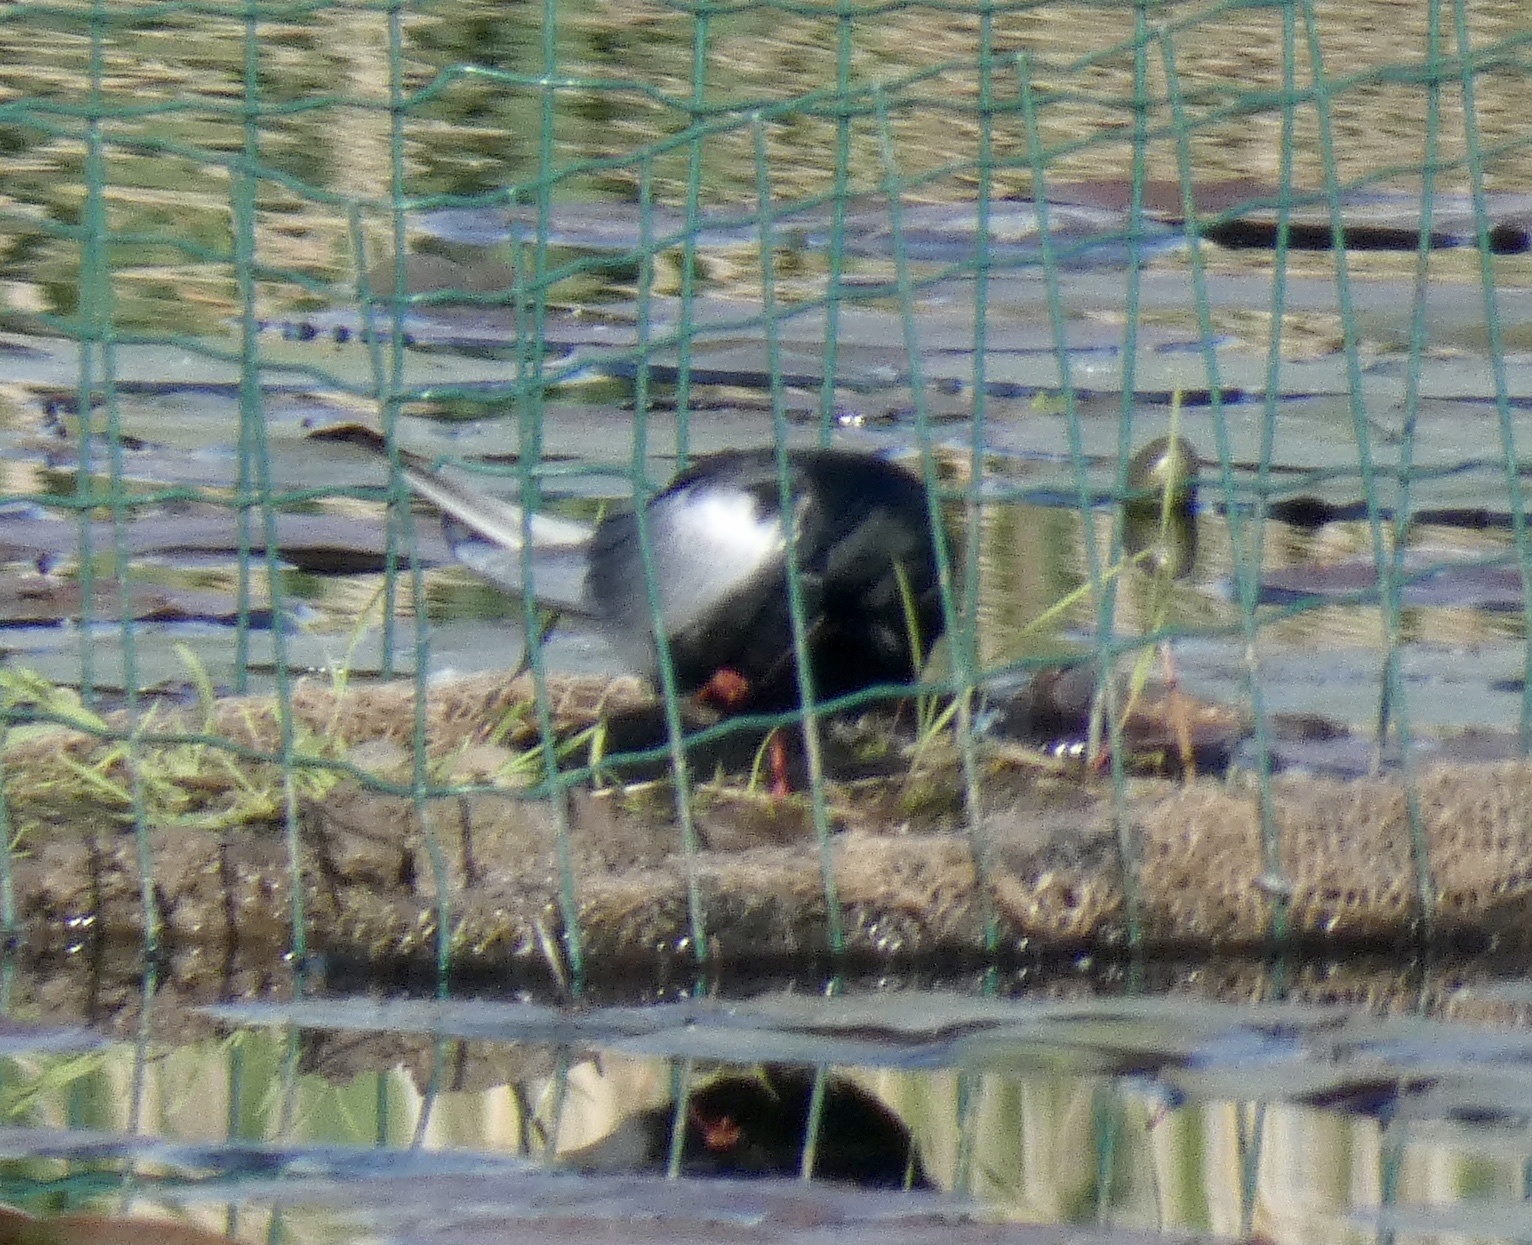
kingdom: Animalia
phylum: Chordata
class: Aves
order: Charadriiformes
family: Laridae
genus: Chlidonias
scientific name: Chlidonias leucopterus
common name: White-winged tern
